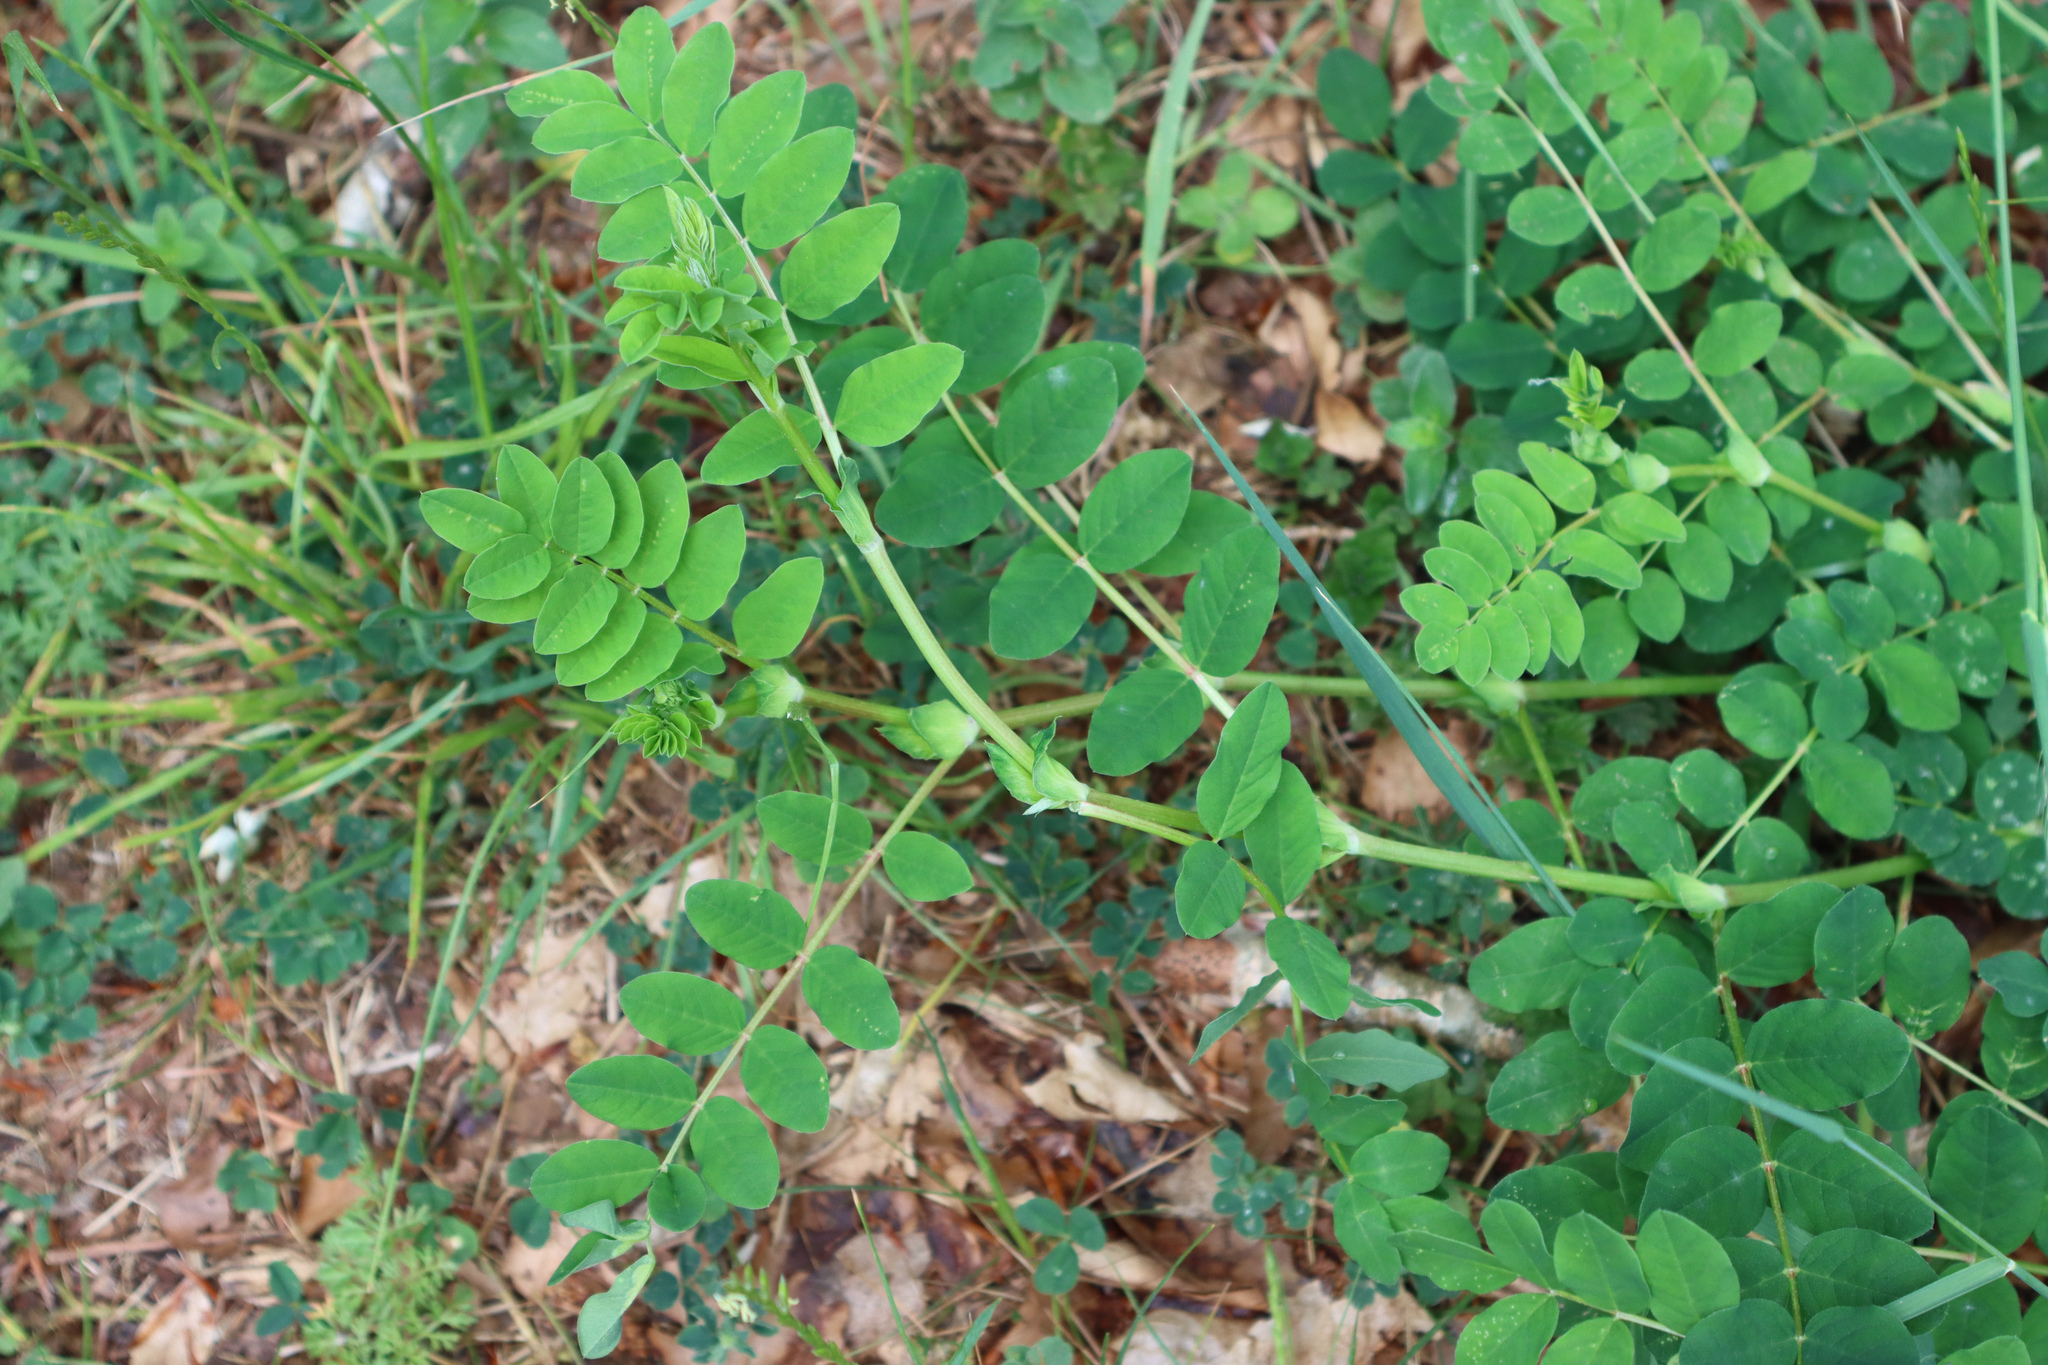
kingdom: Plantae
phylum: Tracheophyta
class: Magnoliopsida
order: Fabales
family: Fabaceae
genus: Astragalus
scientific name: Astragalus glycyphyllos
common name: Wild liquorice
